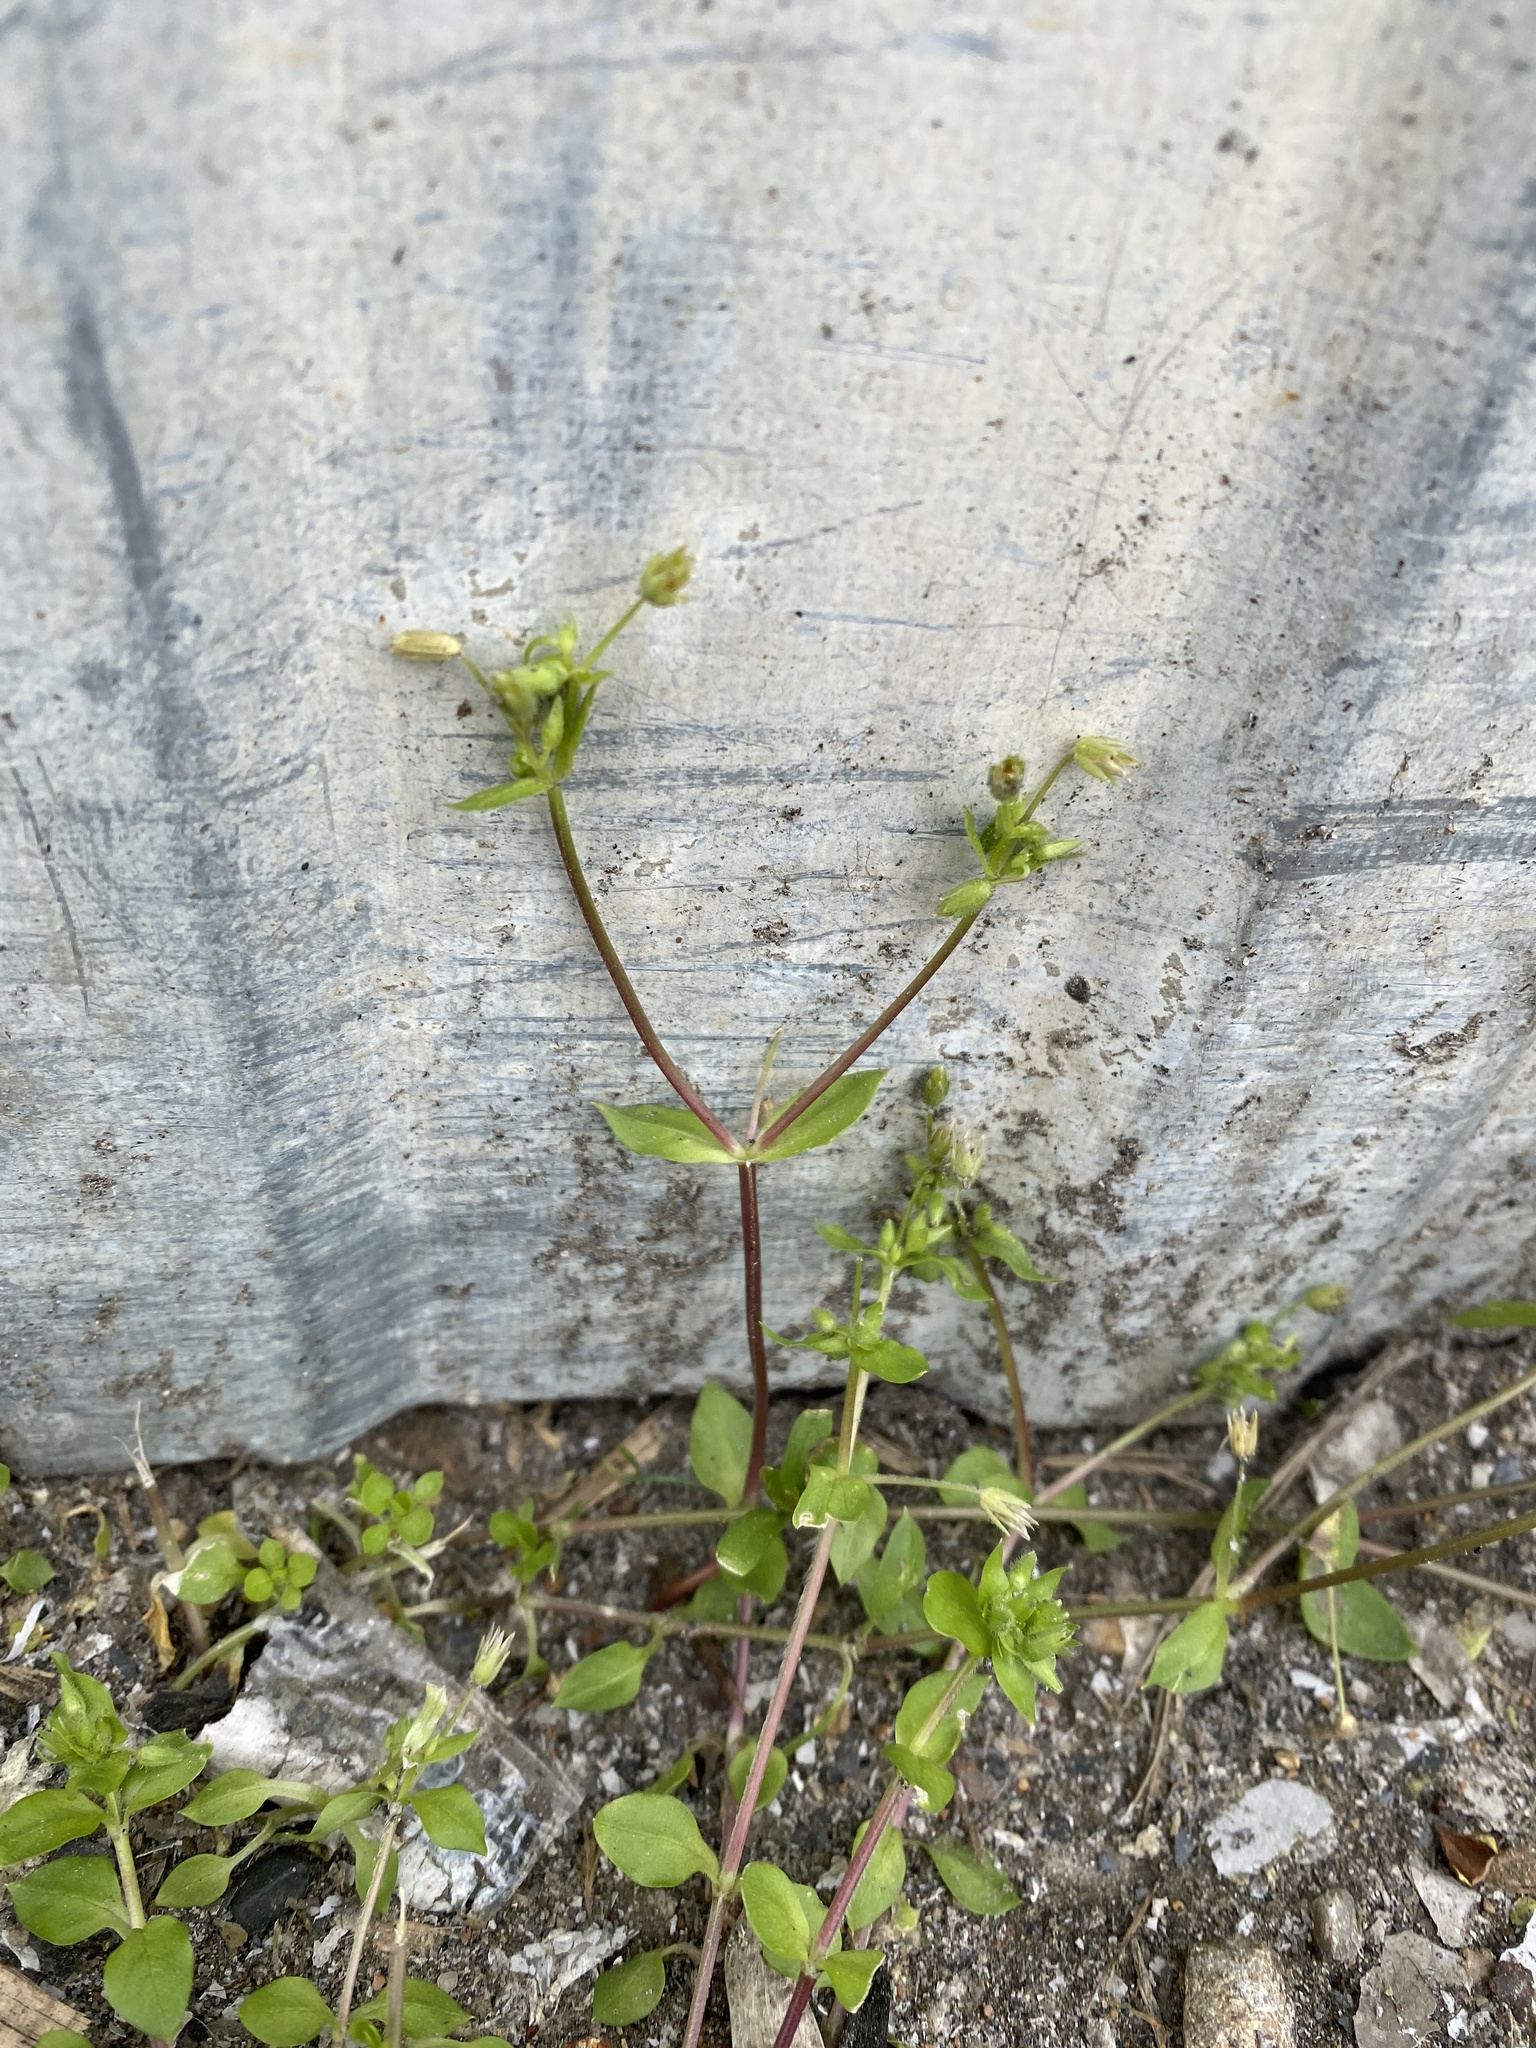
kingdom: Plantae
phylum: Tracheophyta
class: Magnoliopsida
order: Caryophyllales
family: Caryophyllaceae
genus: Stellaria
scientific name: Stellaria media
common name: Common chickweed
